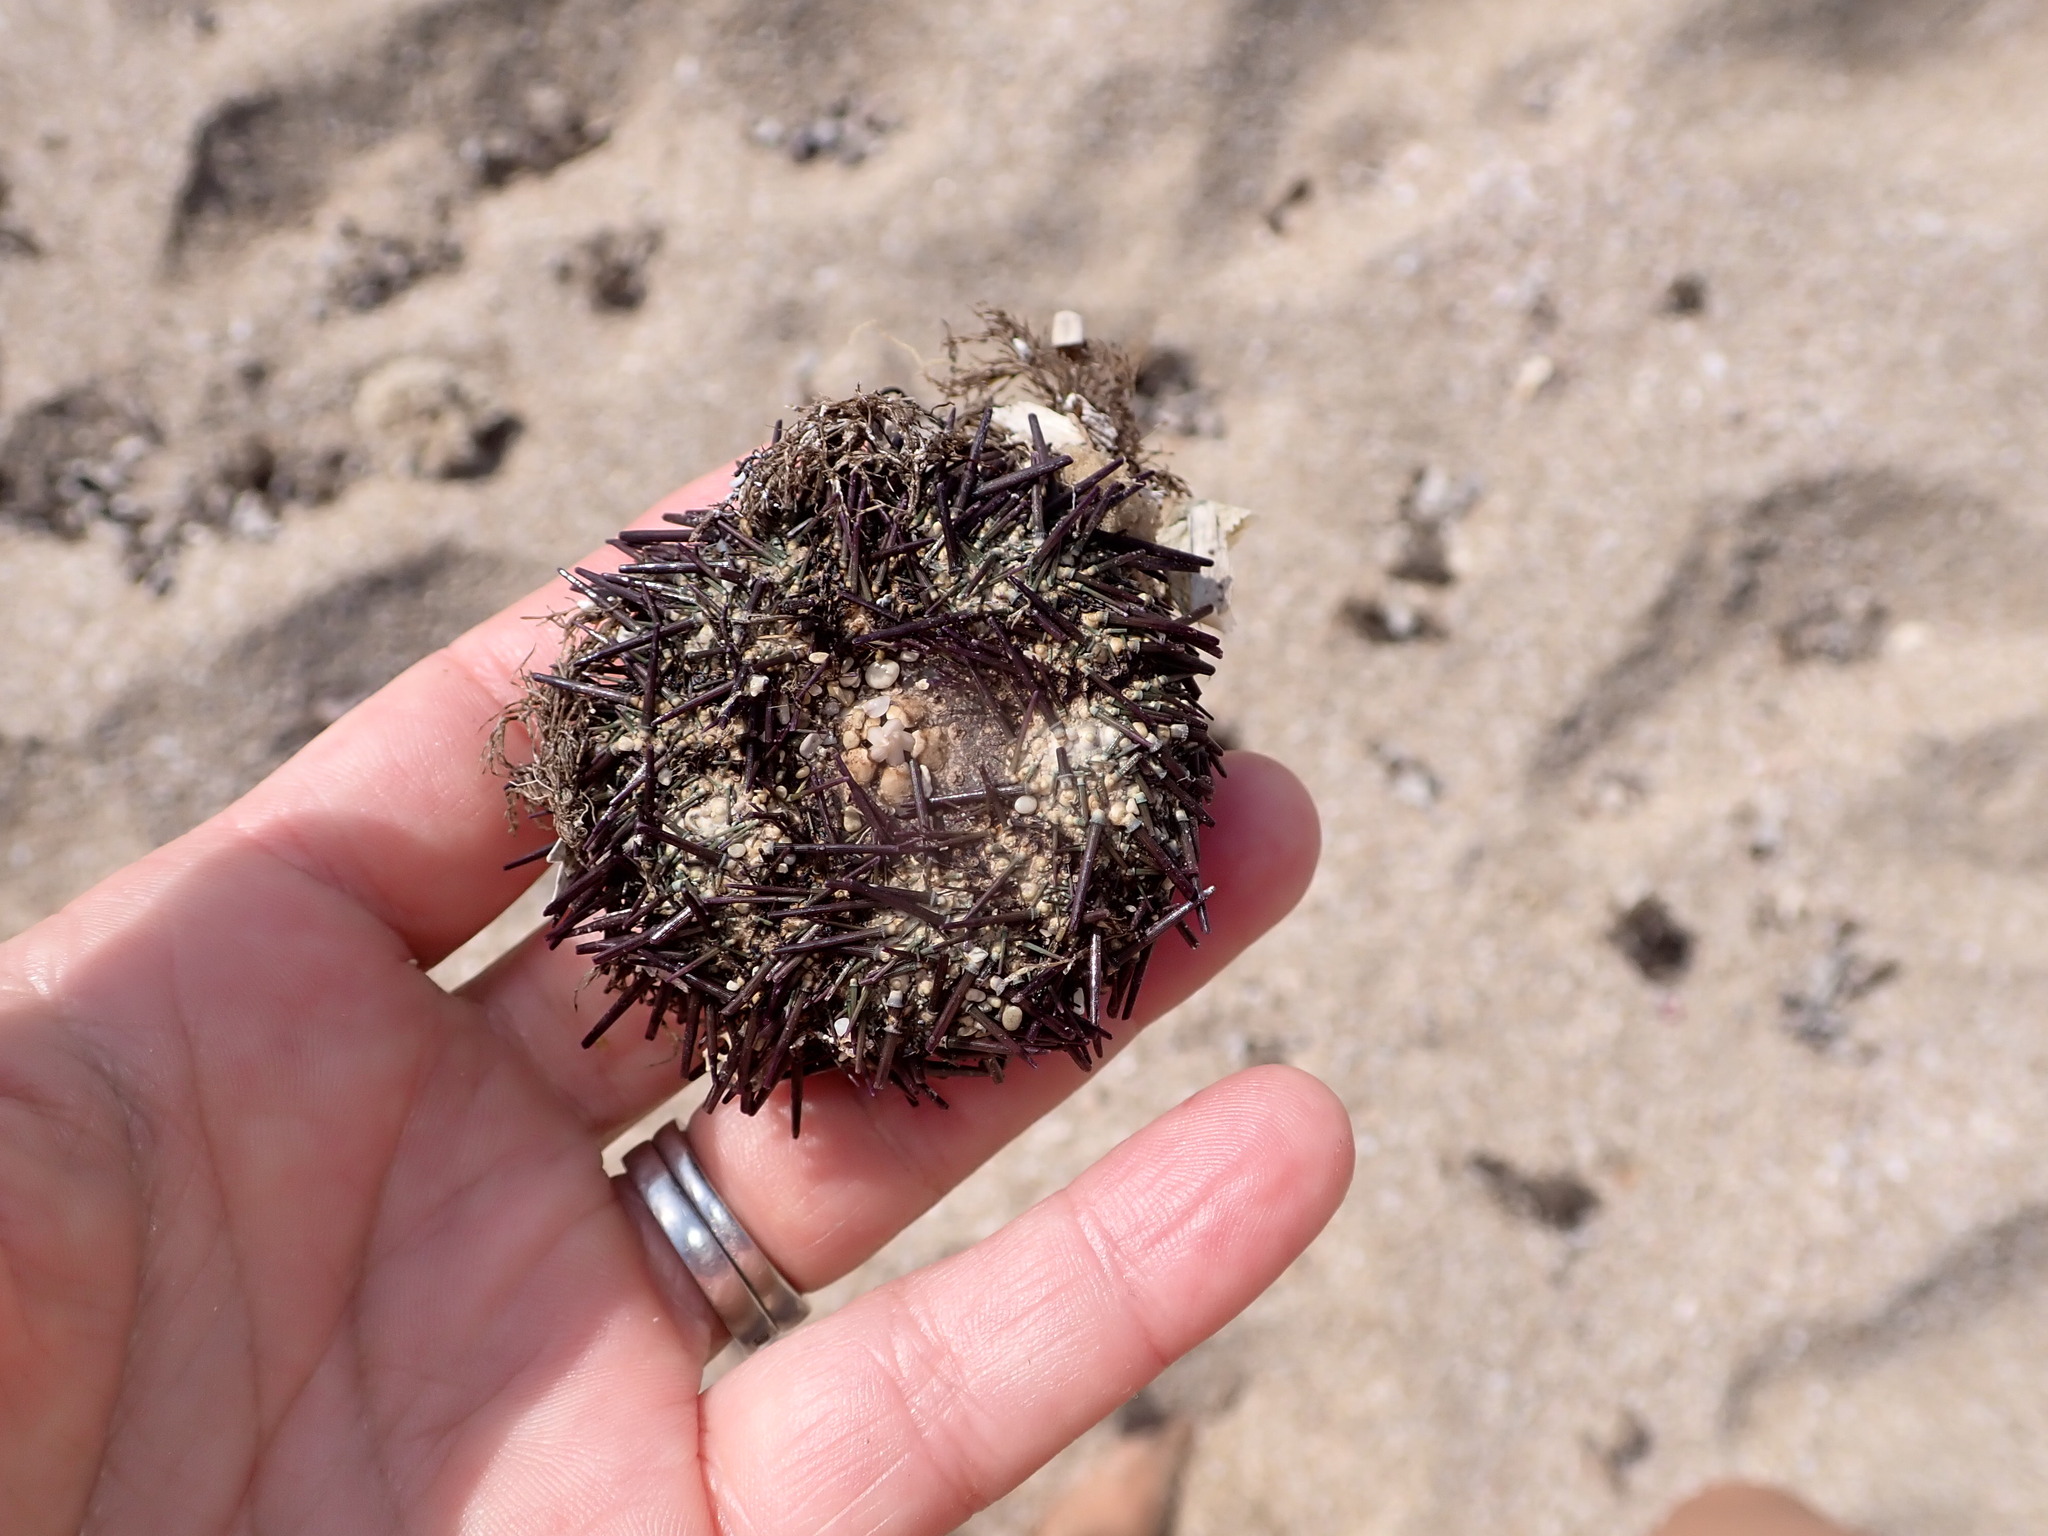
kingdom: Animalia
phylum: Echinodermata
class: Echinoidea
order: Camarodonta
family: Parechinidae
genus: Paracentrotus
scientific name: Paracentrotus lividus
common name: Purple sea urchin
